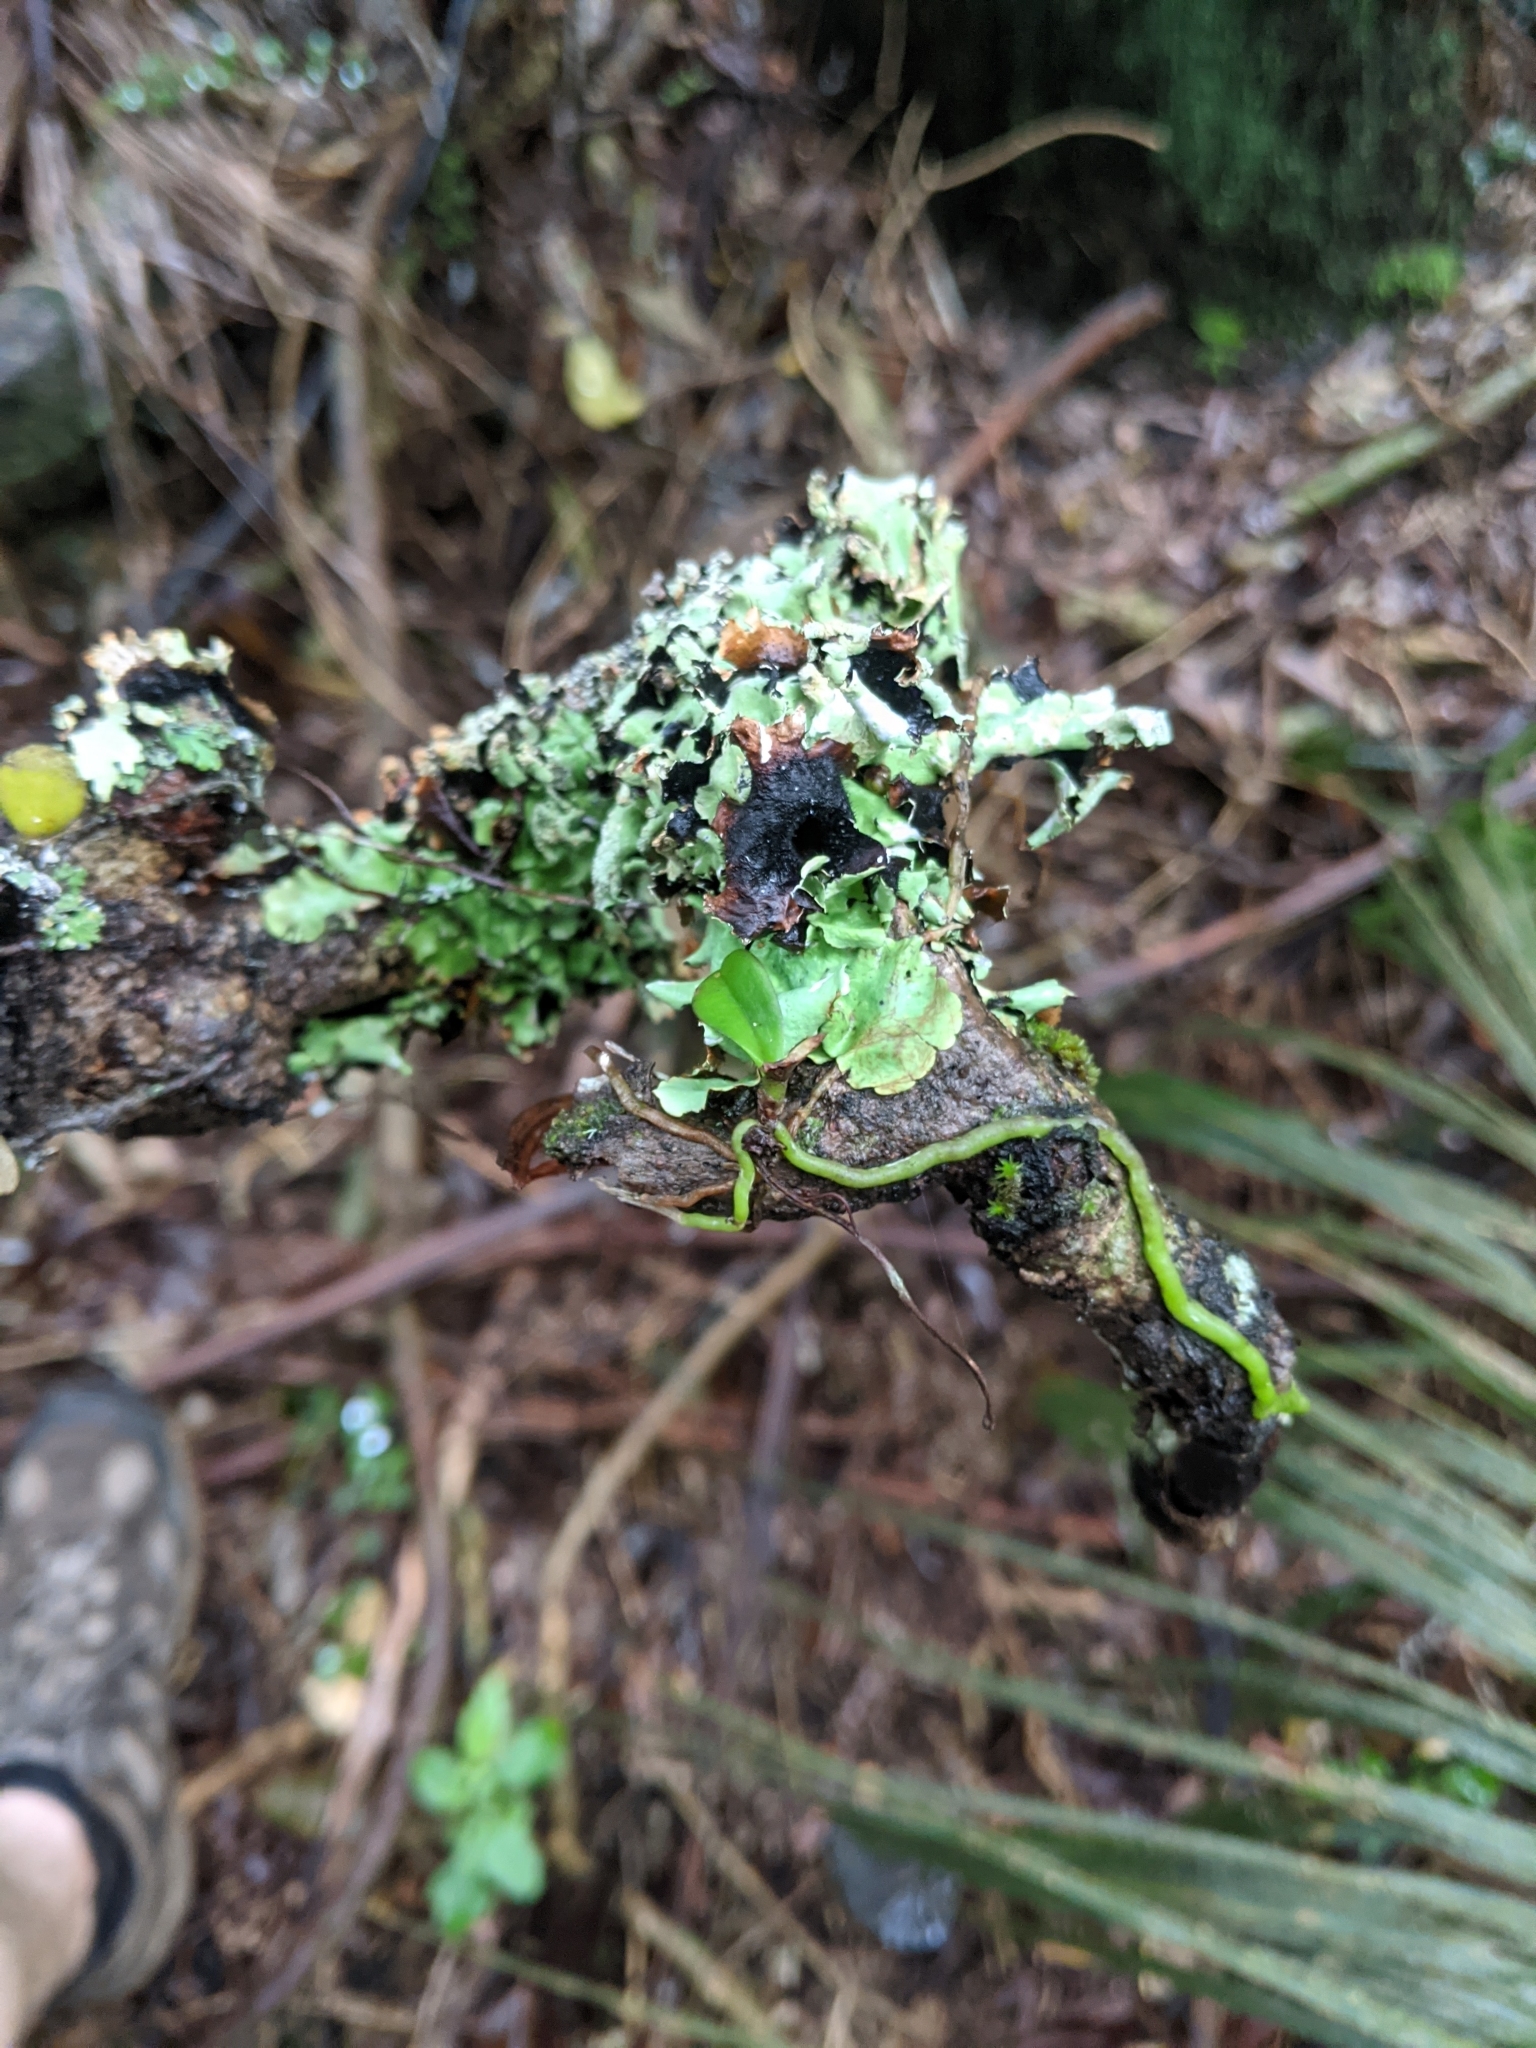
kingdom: Plantae
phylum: Tracheophyta
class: Liliopsida
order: Asparagales
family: Orchidaceae
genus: Drymoanthus
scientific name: Drymoanthus adversus
